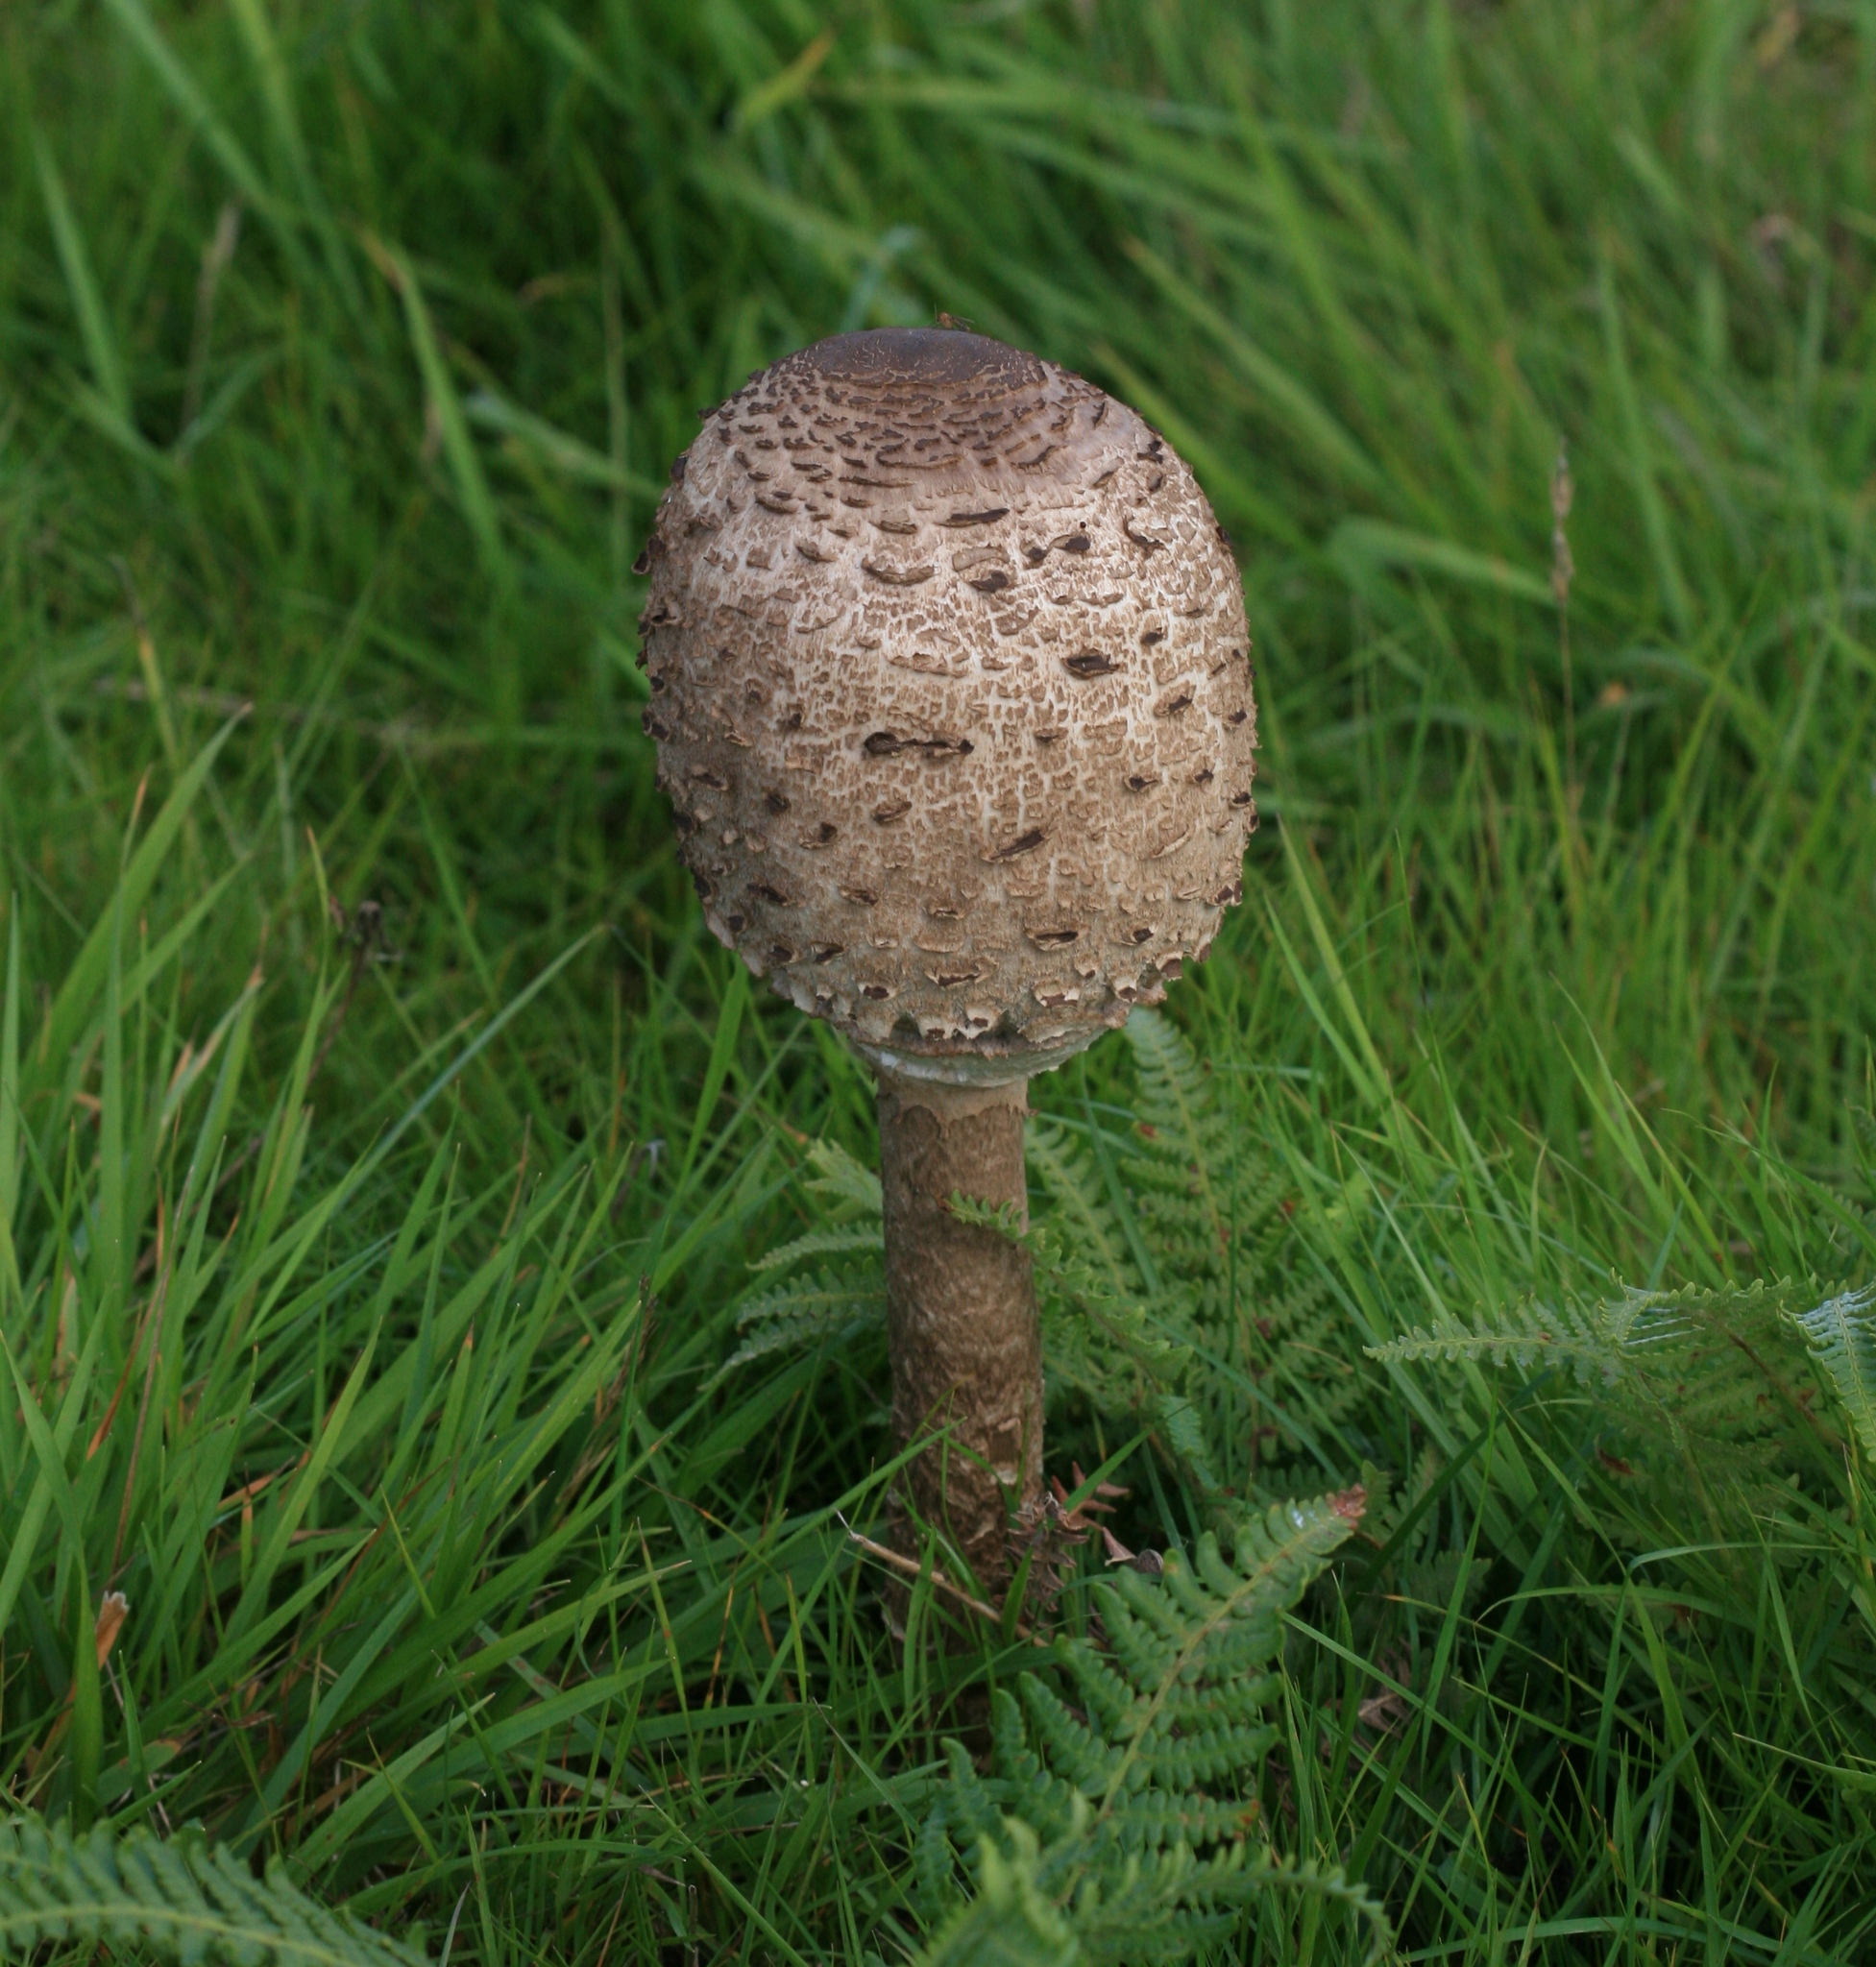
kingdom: Fungi
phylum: Basidiomycota
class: Agaricomycetes
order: Agaricales
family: Agaricaceae
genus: Macrolepiota
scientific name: Macrolepiota procera
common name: Parasol
